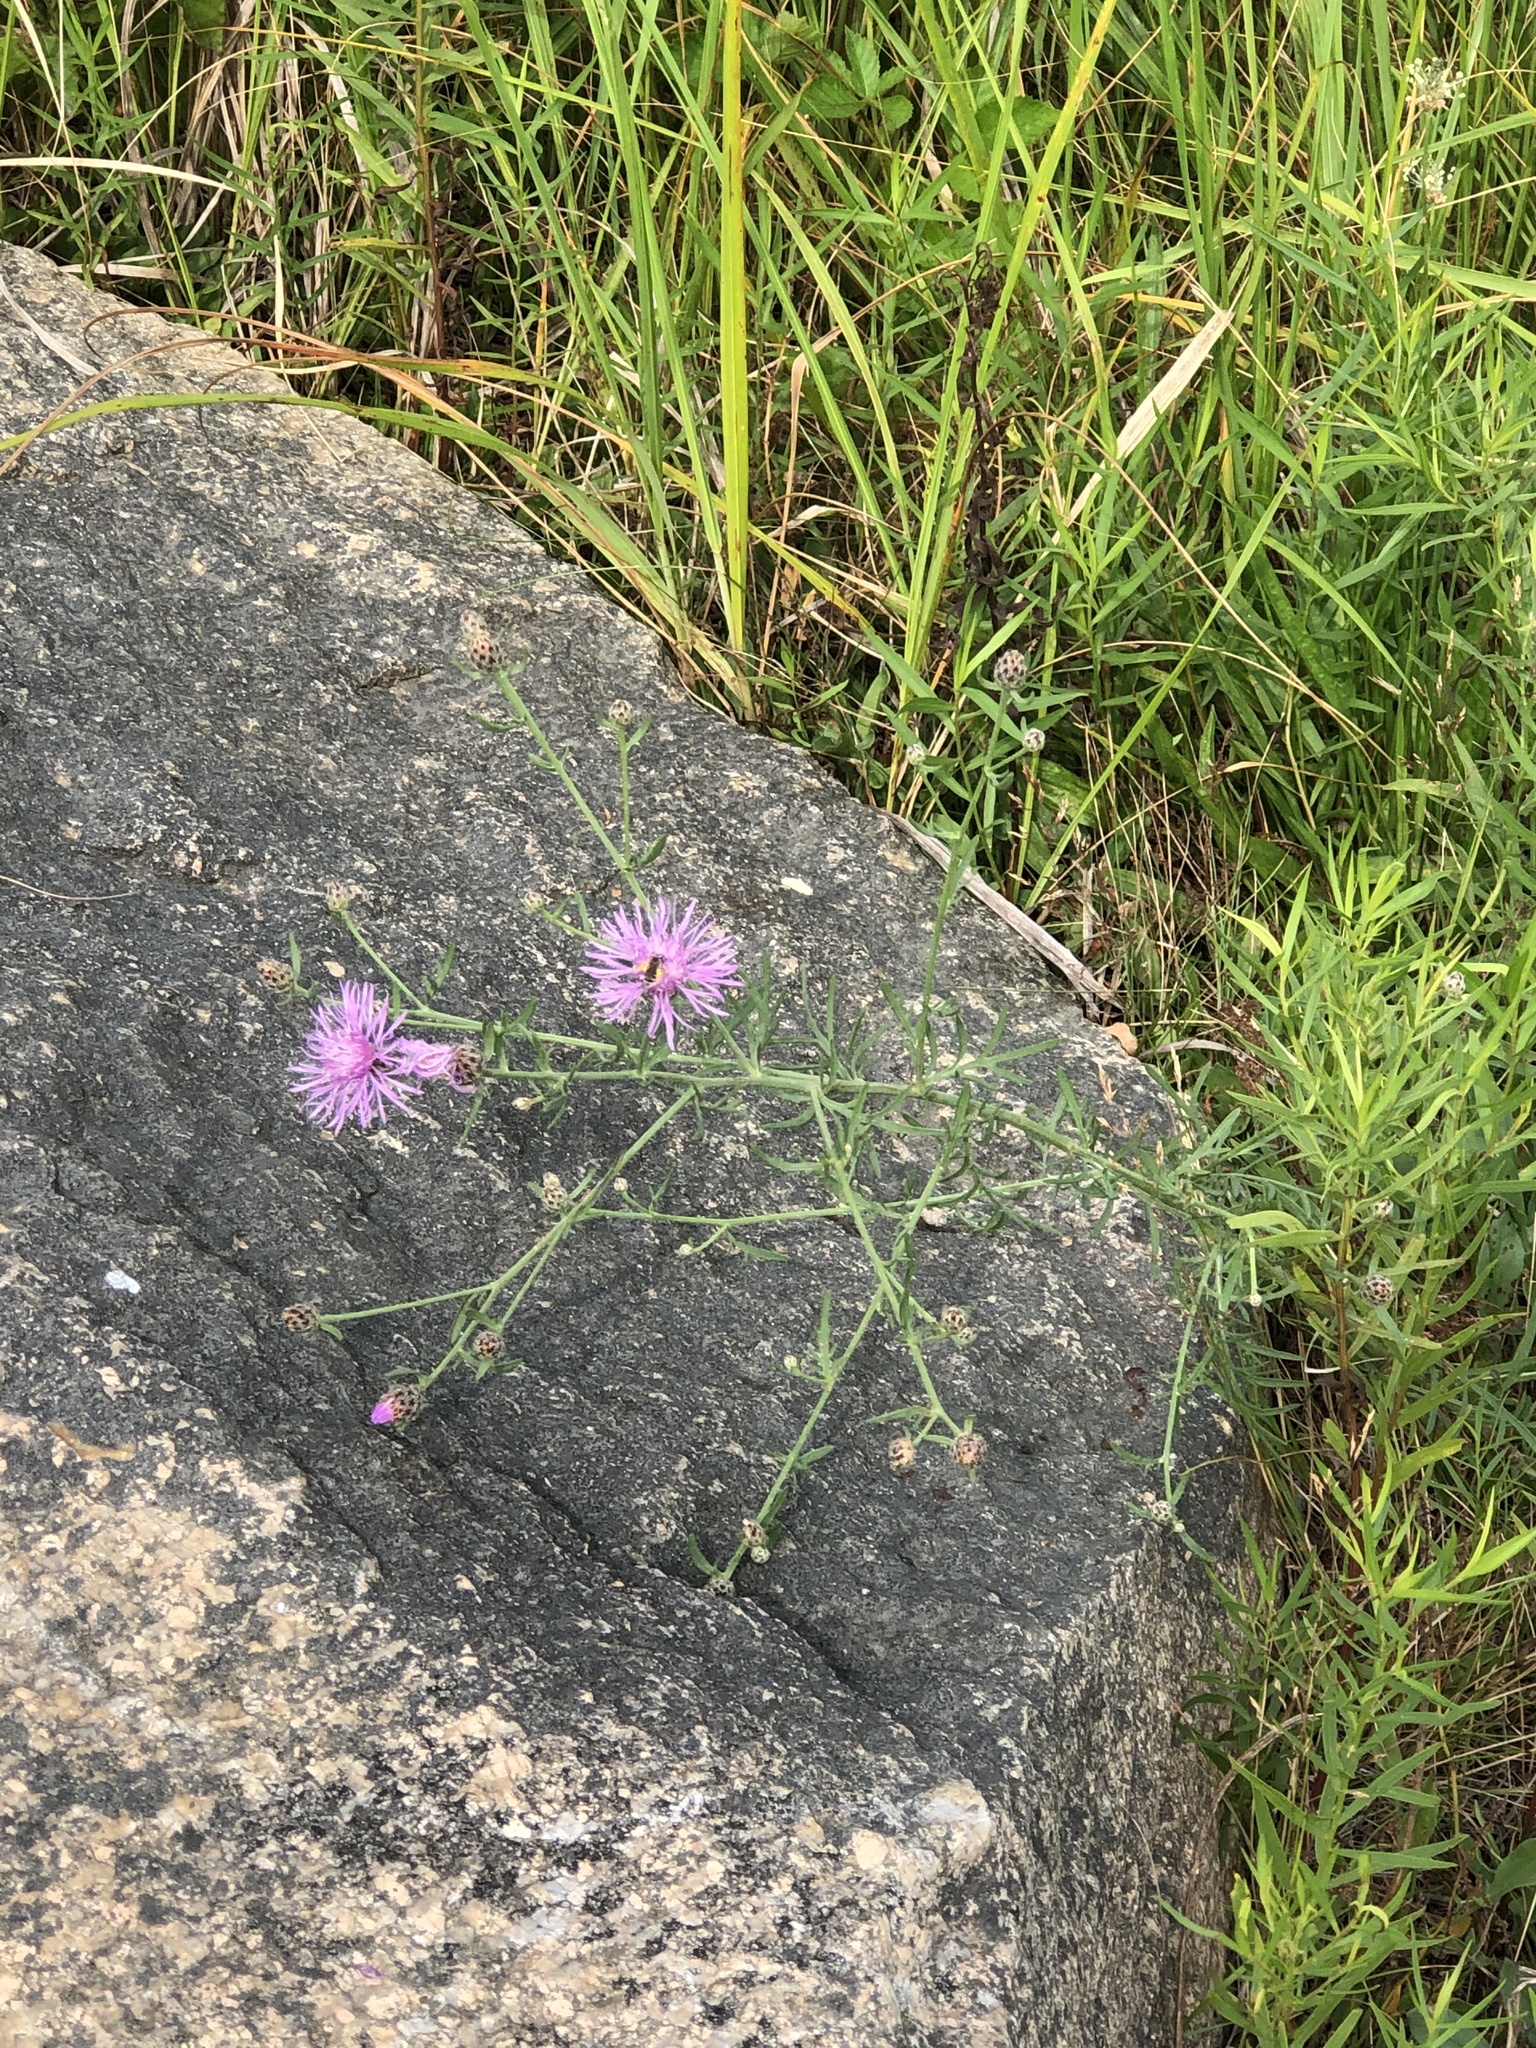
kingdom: Plantae
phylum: Tracheophyta
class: Magnoliopsida
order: Asterales
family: Asteraceae
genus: Centaurea
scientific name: Centaurea stoebe
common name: Spotted knapweed
